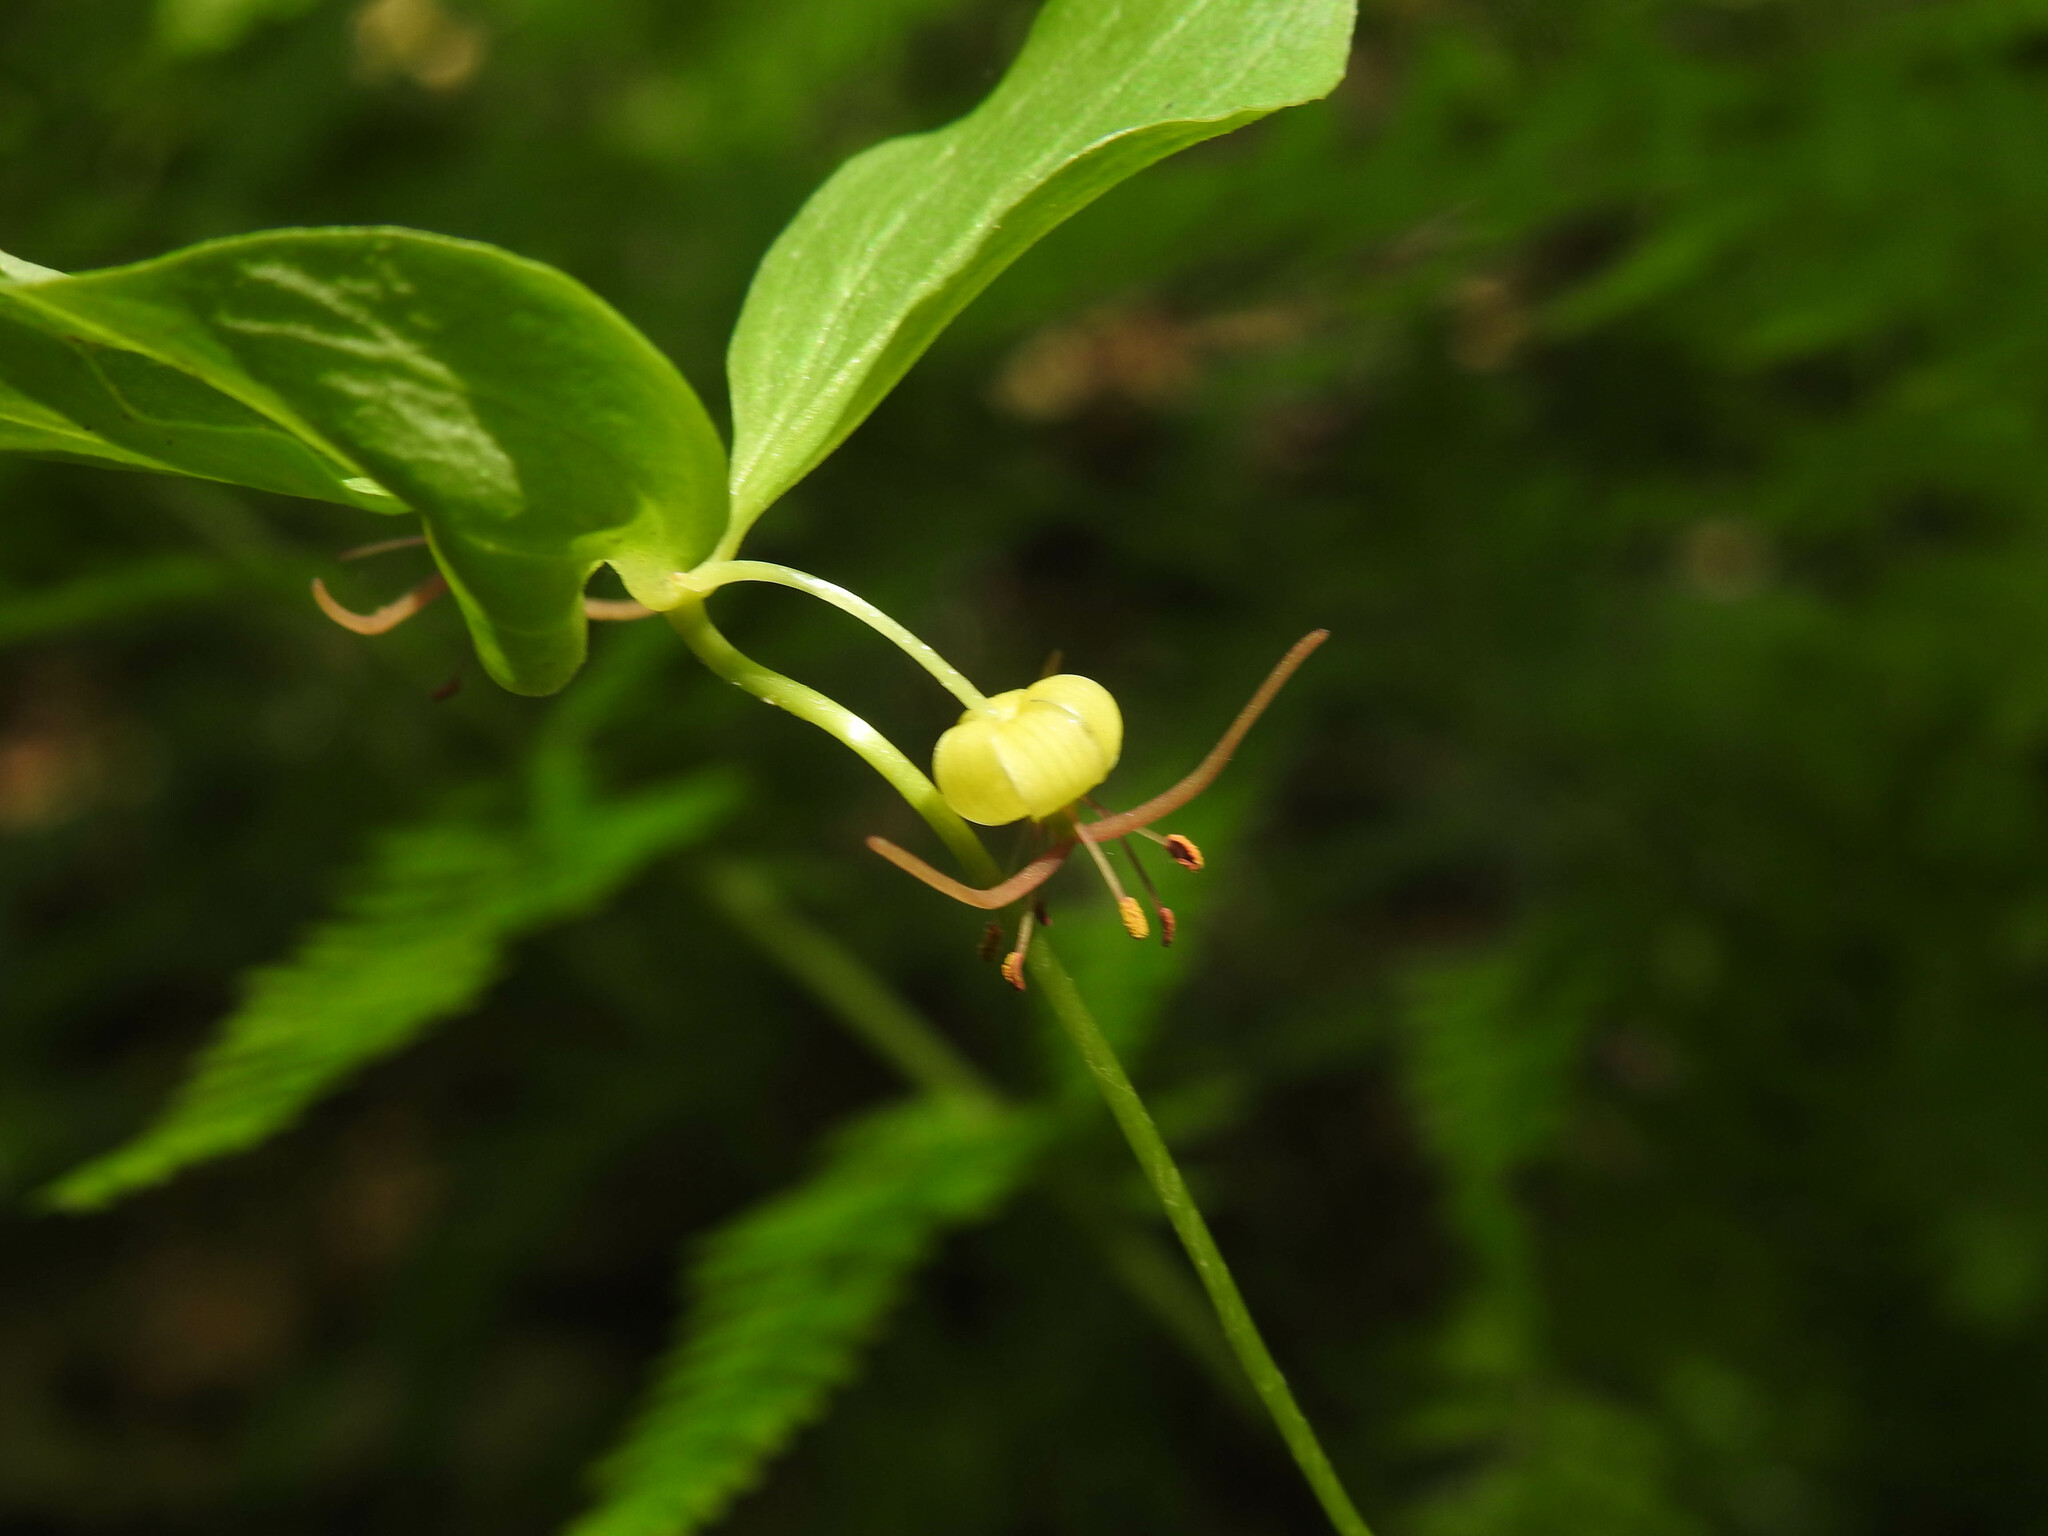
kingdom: Plantae
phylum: Tracheophyta
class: Liliopsida
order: Liliales
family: Liliaceae
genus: Medeola
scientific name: Medeola virginiana
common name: Indian cucumber-root
